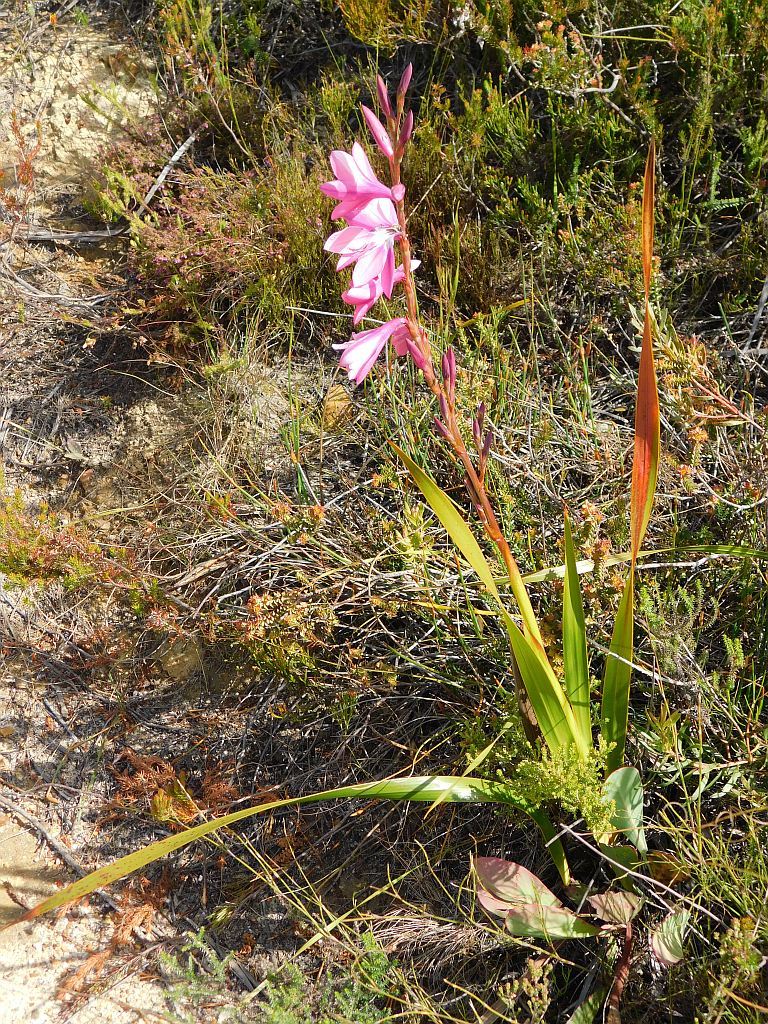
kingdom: Plantae
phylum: Tracheophyta
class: Liliopsida
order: Asparagales
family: Iridaceae
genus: Watsonia
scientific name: Watsonia borbonica
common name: Bugle-lily
